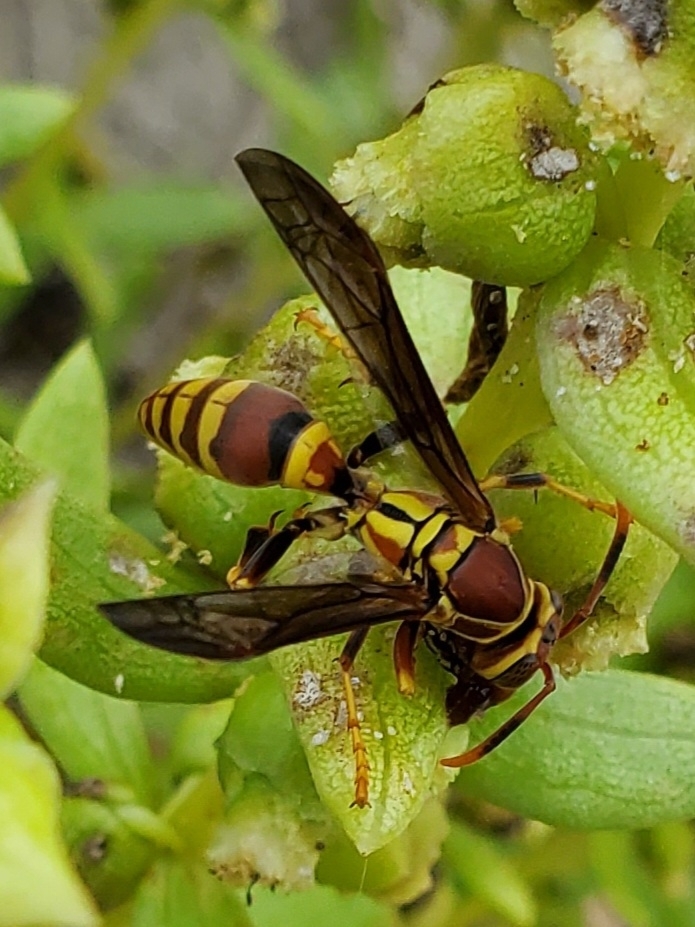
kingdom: Animalia
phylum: Arthropoda
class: Insecta
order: Hymenoptera
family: Eumenidae
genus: Polistes
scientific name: Polistes exclamans
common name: Paper wasp
